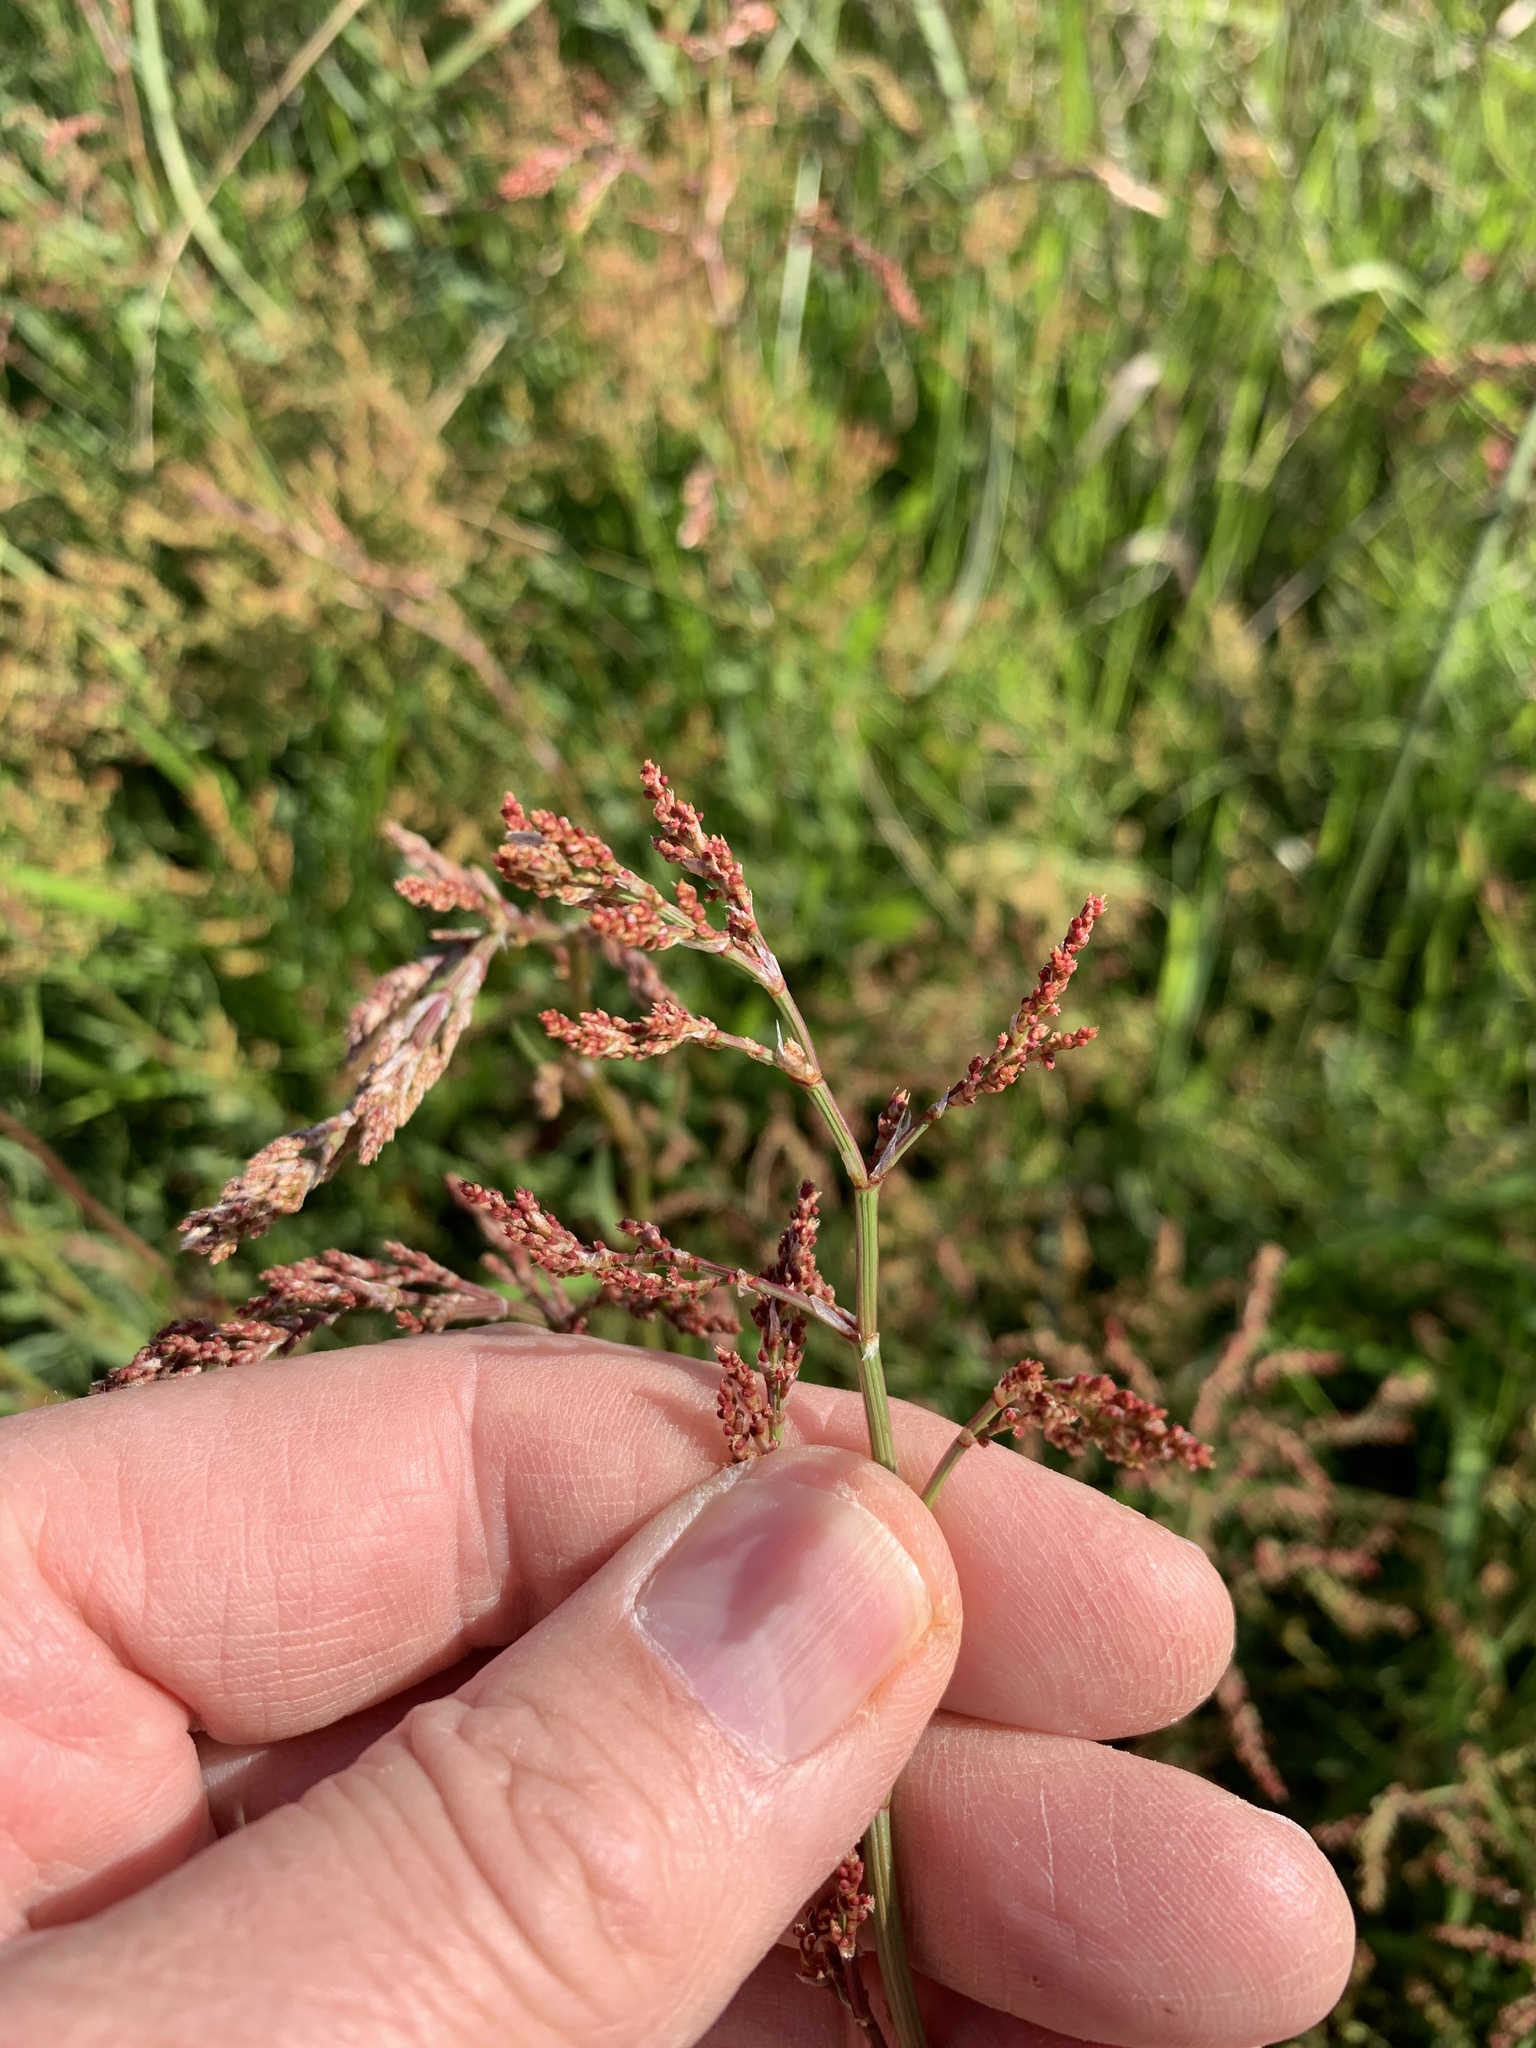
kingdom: Plantae
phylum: Tracheophyta
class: Magnoliopsida
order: Caryophyllales
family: Polygonaceae
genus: Rumex
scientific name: Rumex acetosella
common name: Common sheep sorrel
